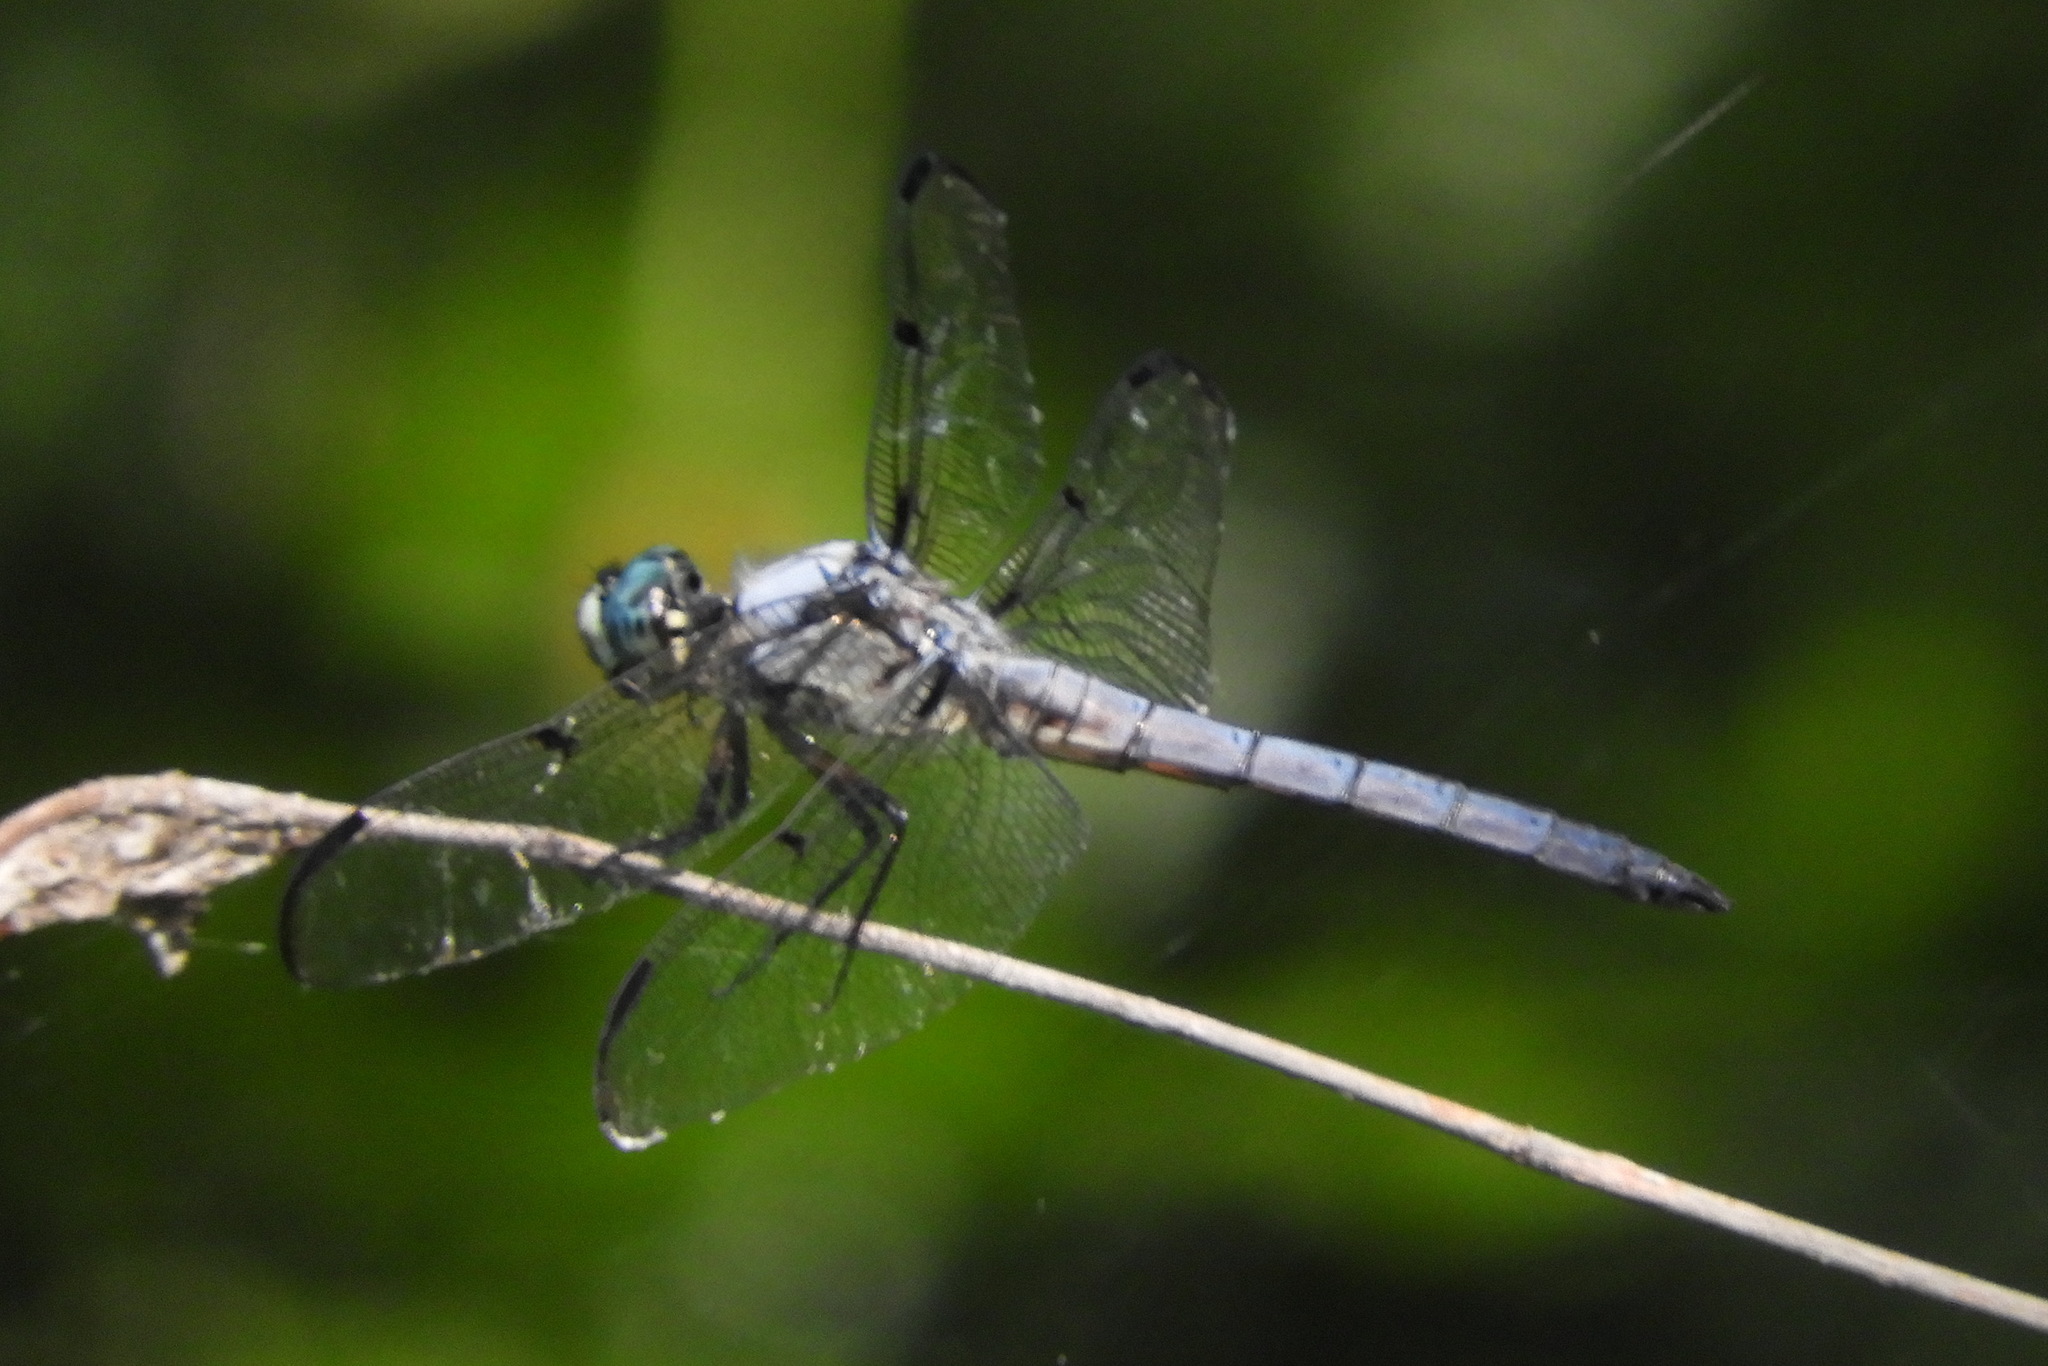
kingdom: Animalia
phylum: Arthropoda
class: Insecta
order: Odonata
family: Libellulidae
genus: Libellula
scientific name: Libellula vibrans
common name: Great blue skimmer
